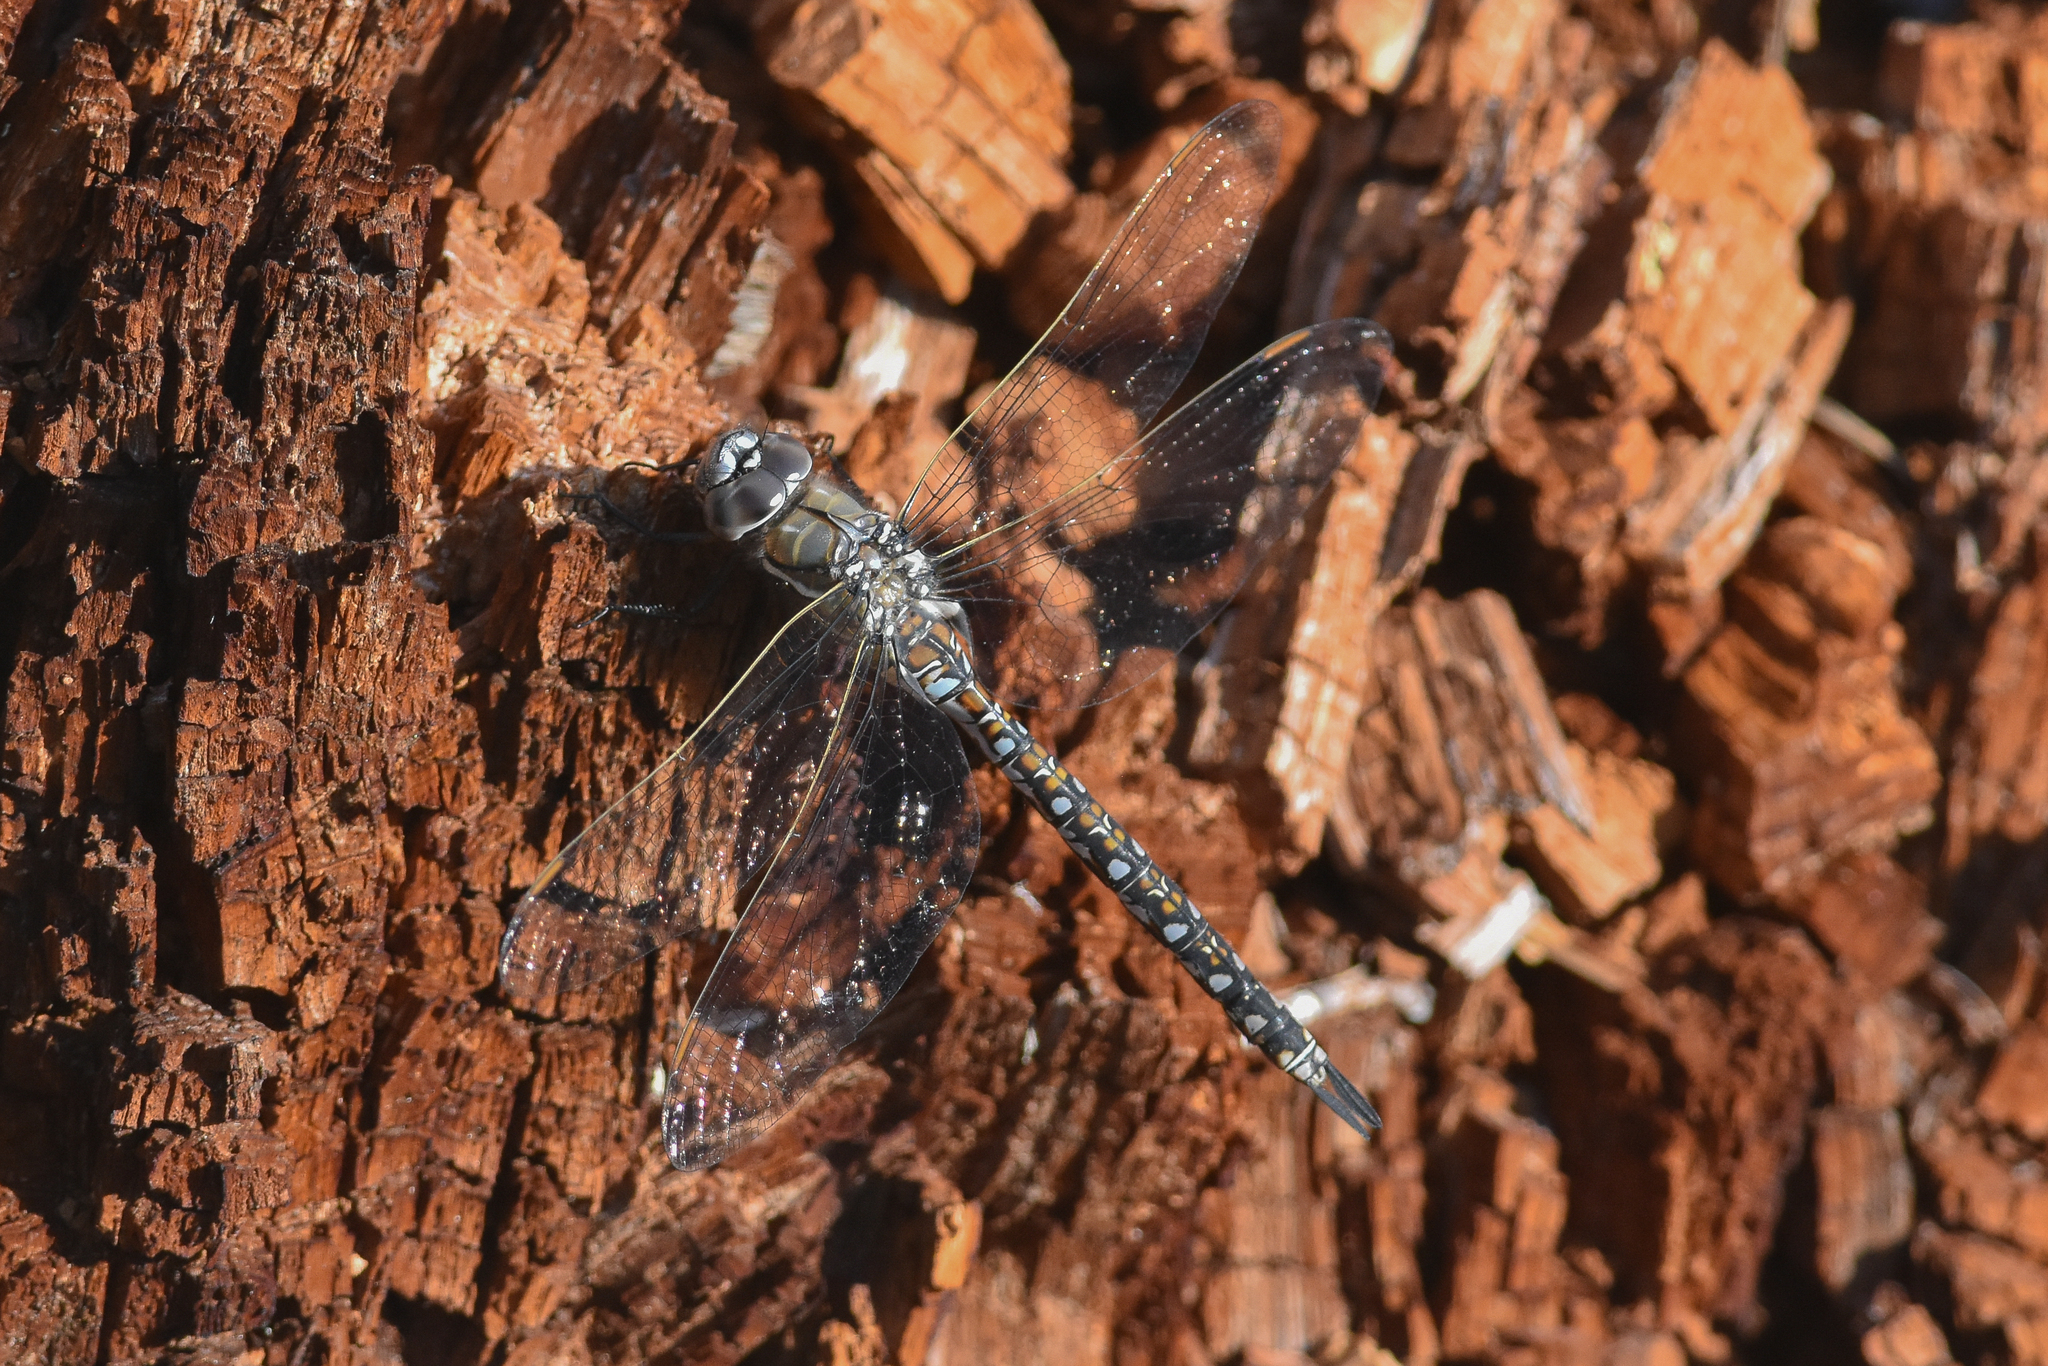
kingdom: Animalia
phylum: Arthropoda
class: Insecta
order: Odonata
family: Aeshnidae
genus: Rhionaeschna
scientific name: Rhionaeschna californica
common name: California darner
